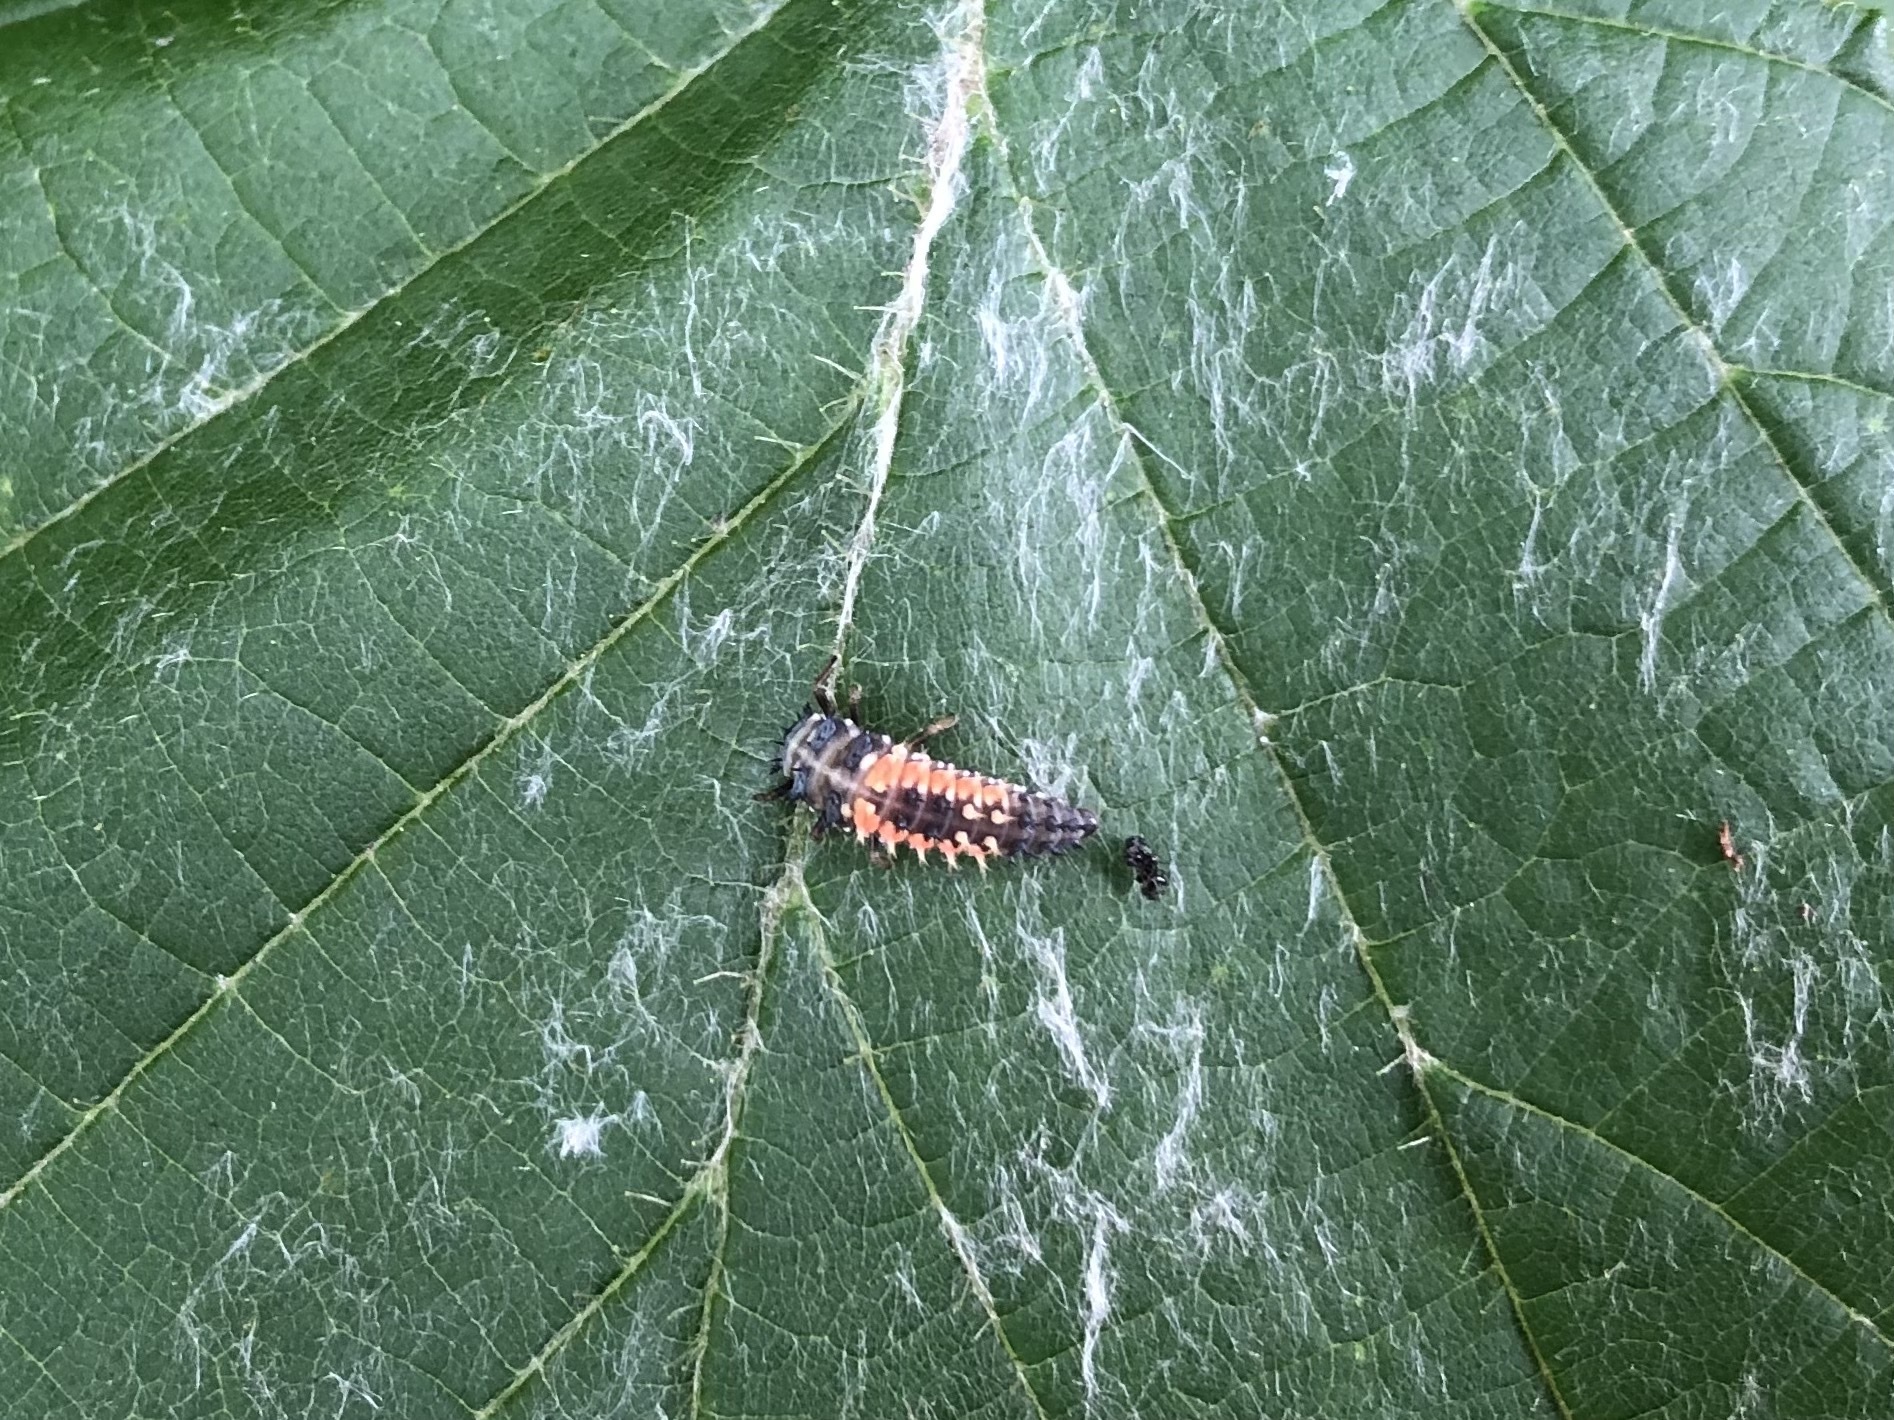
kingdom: Animalia
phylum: Arthropoda
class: Insecta
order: Coleoptera
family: Coccinellidae
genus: Harmonia
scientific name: Harmonia axyridis
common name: Harlequin ladybird
